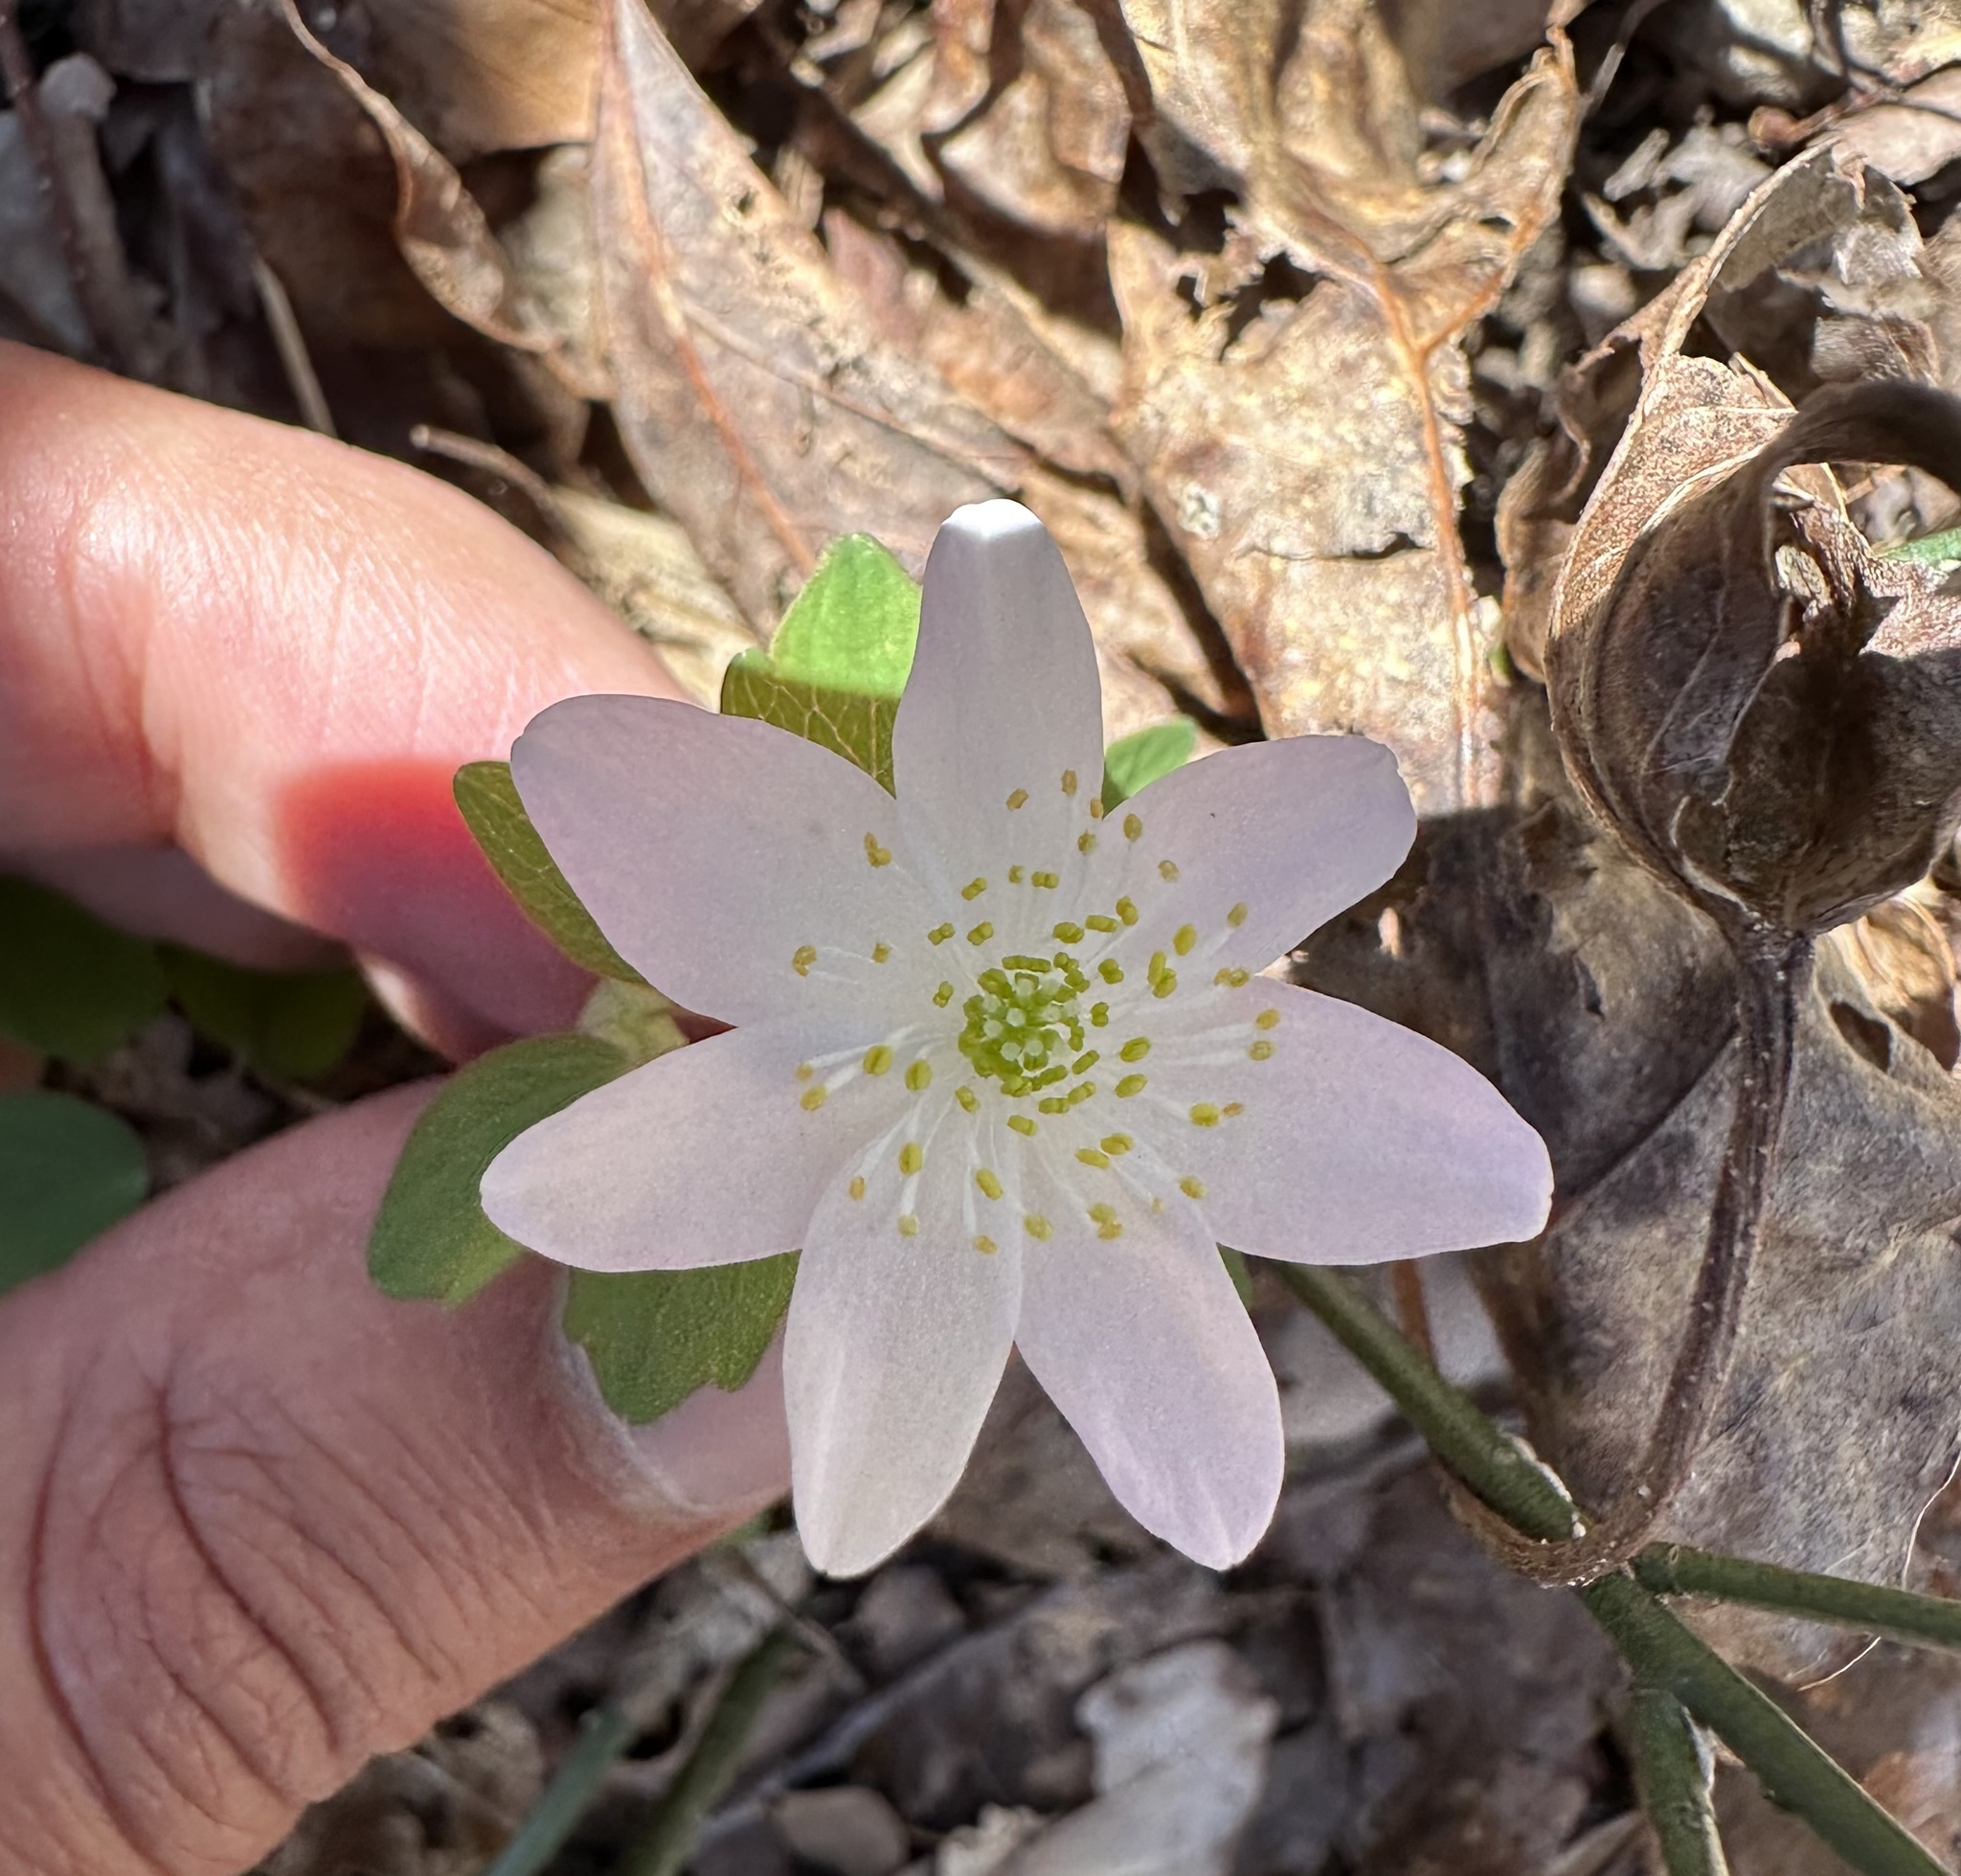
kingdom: Plantae
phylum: Tracheophyta
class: Magnoliopsida
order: Ranunculales
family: Ranunculaceae
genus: Thalictrum
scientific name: Thalictrum thalictroides
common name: Rue-anemone
